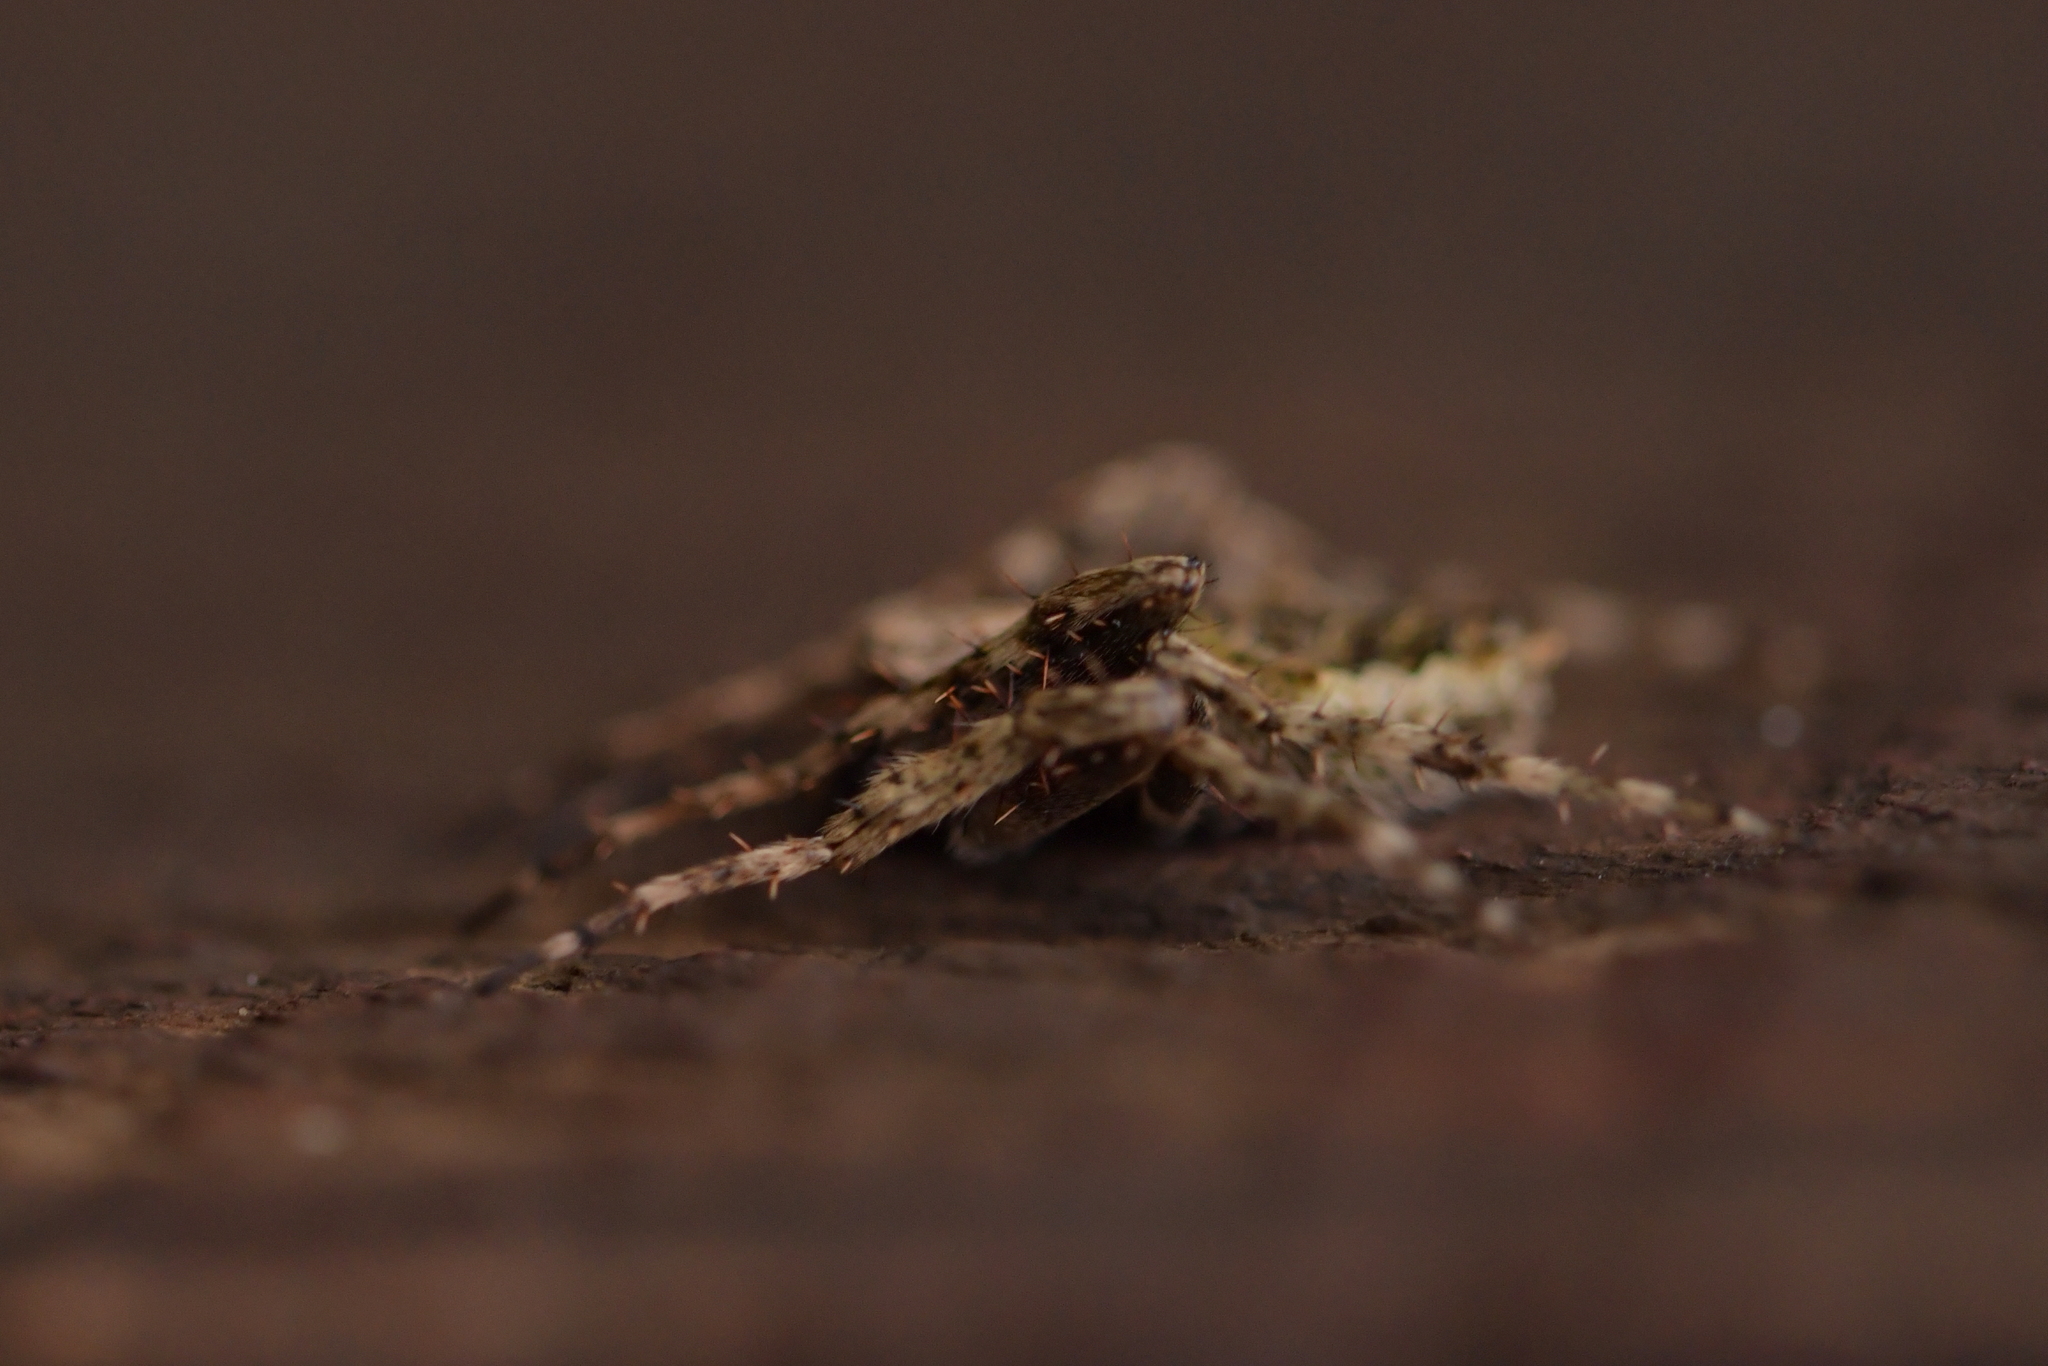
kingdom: Animalia
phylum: Arthropoda
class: Arachnida
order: Araneae
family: Araneidae
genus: Eriophora
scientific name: Eriophora pustulosa
